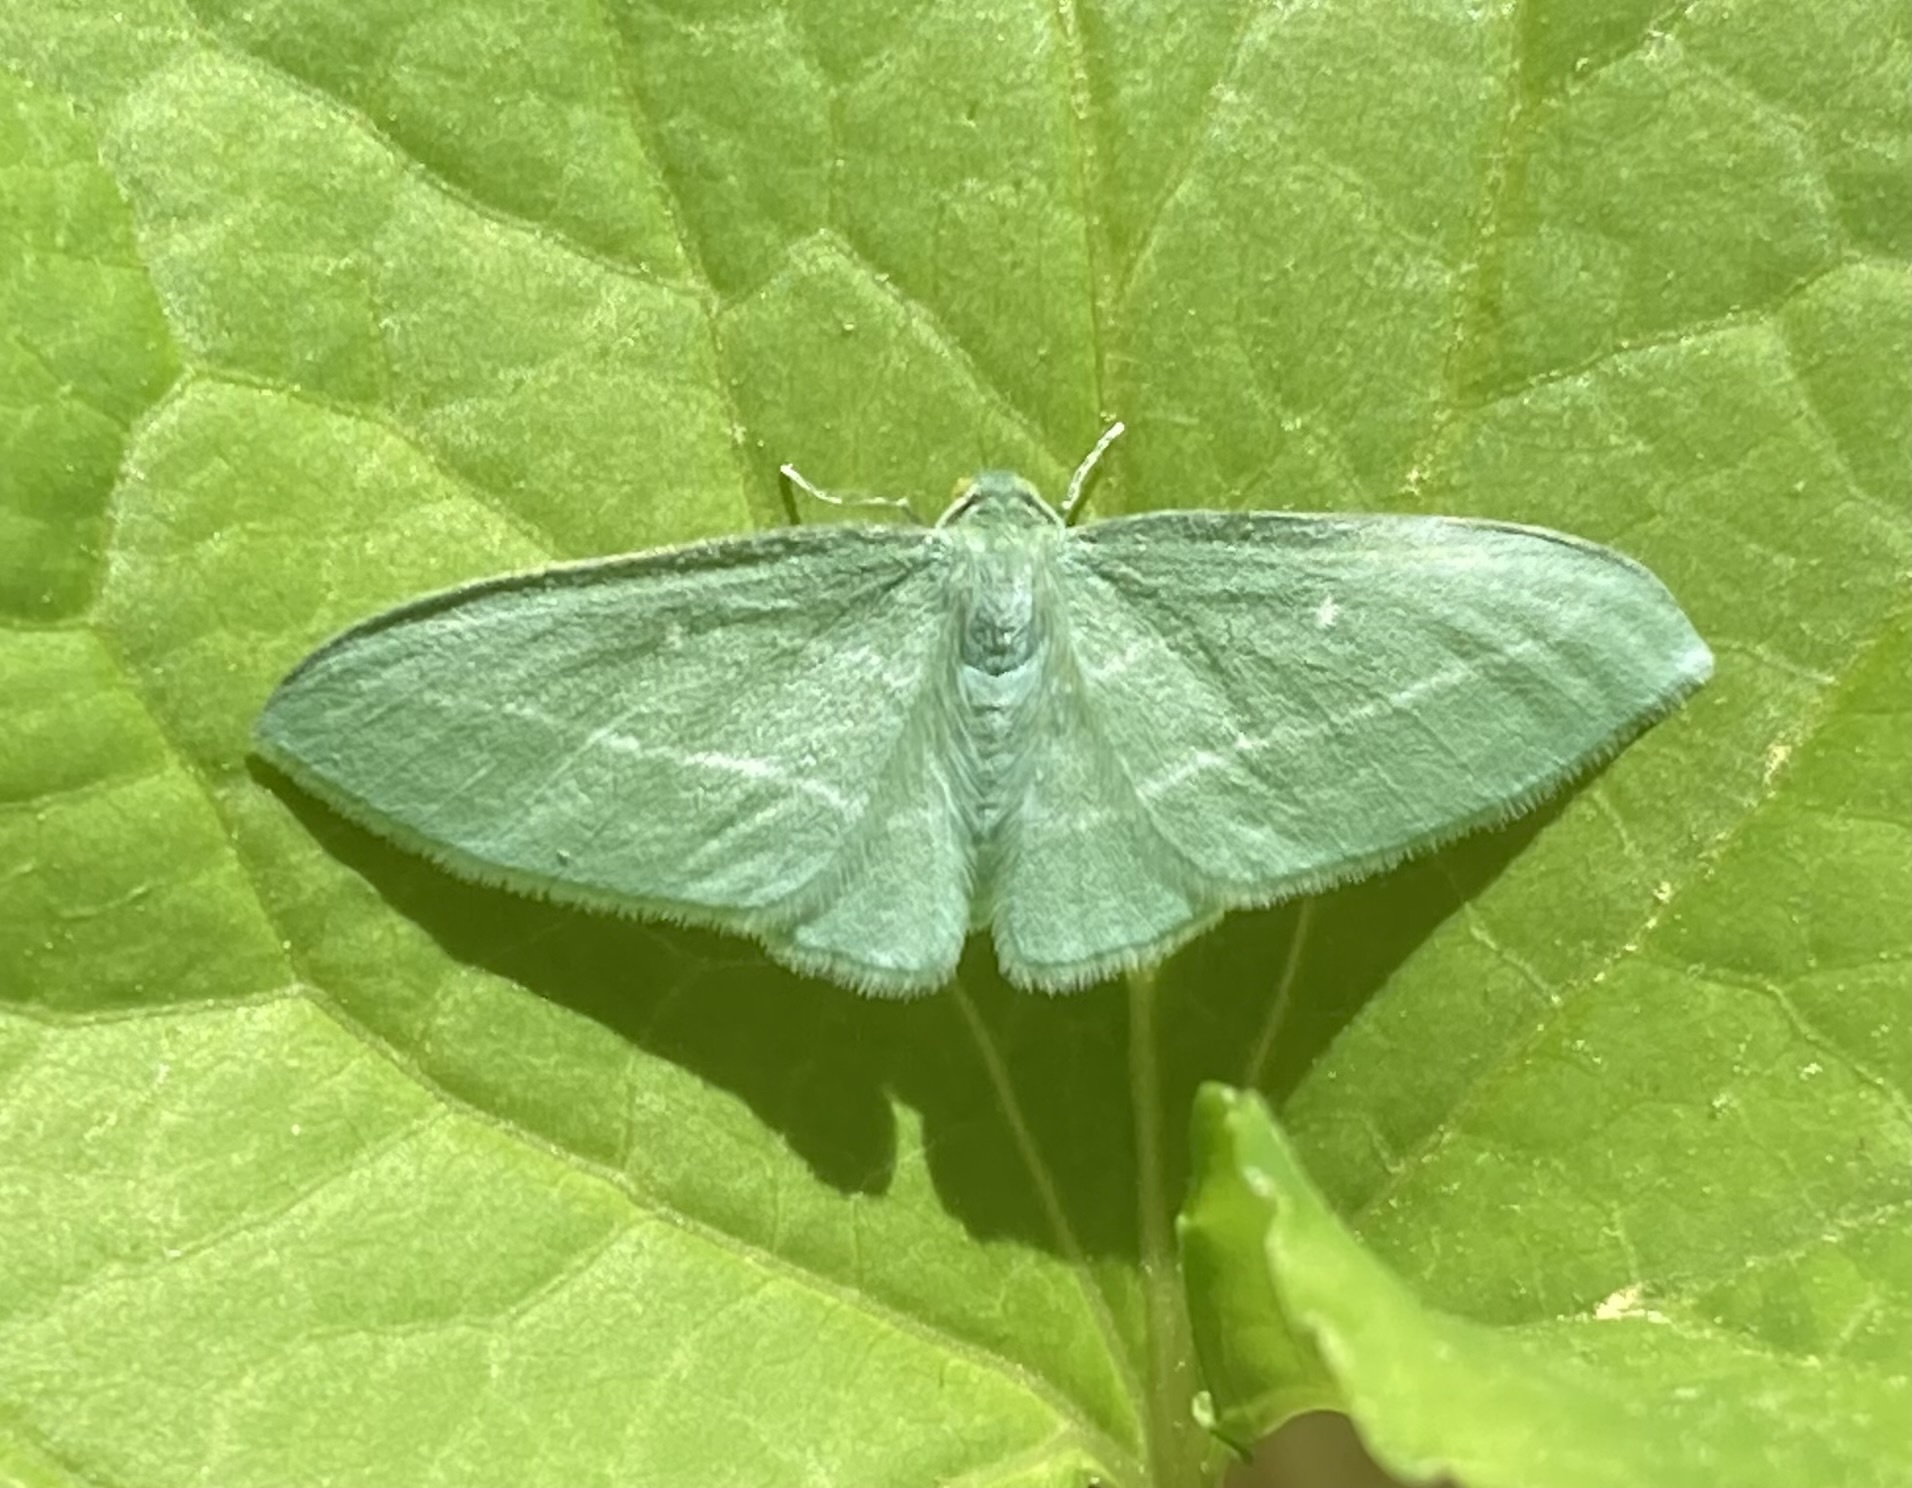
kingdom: Animalia
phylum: Arthropoda
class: Insecta
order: Lepidoptera
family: Geometridae
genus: Dyspteris
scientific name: Dyspteris abortivaria
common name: Bad-wing
